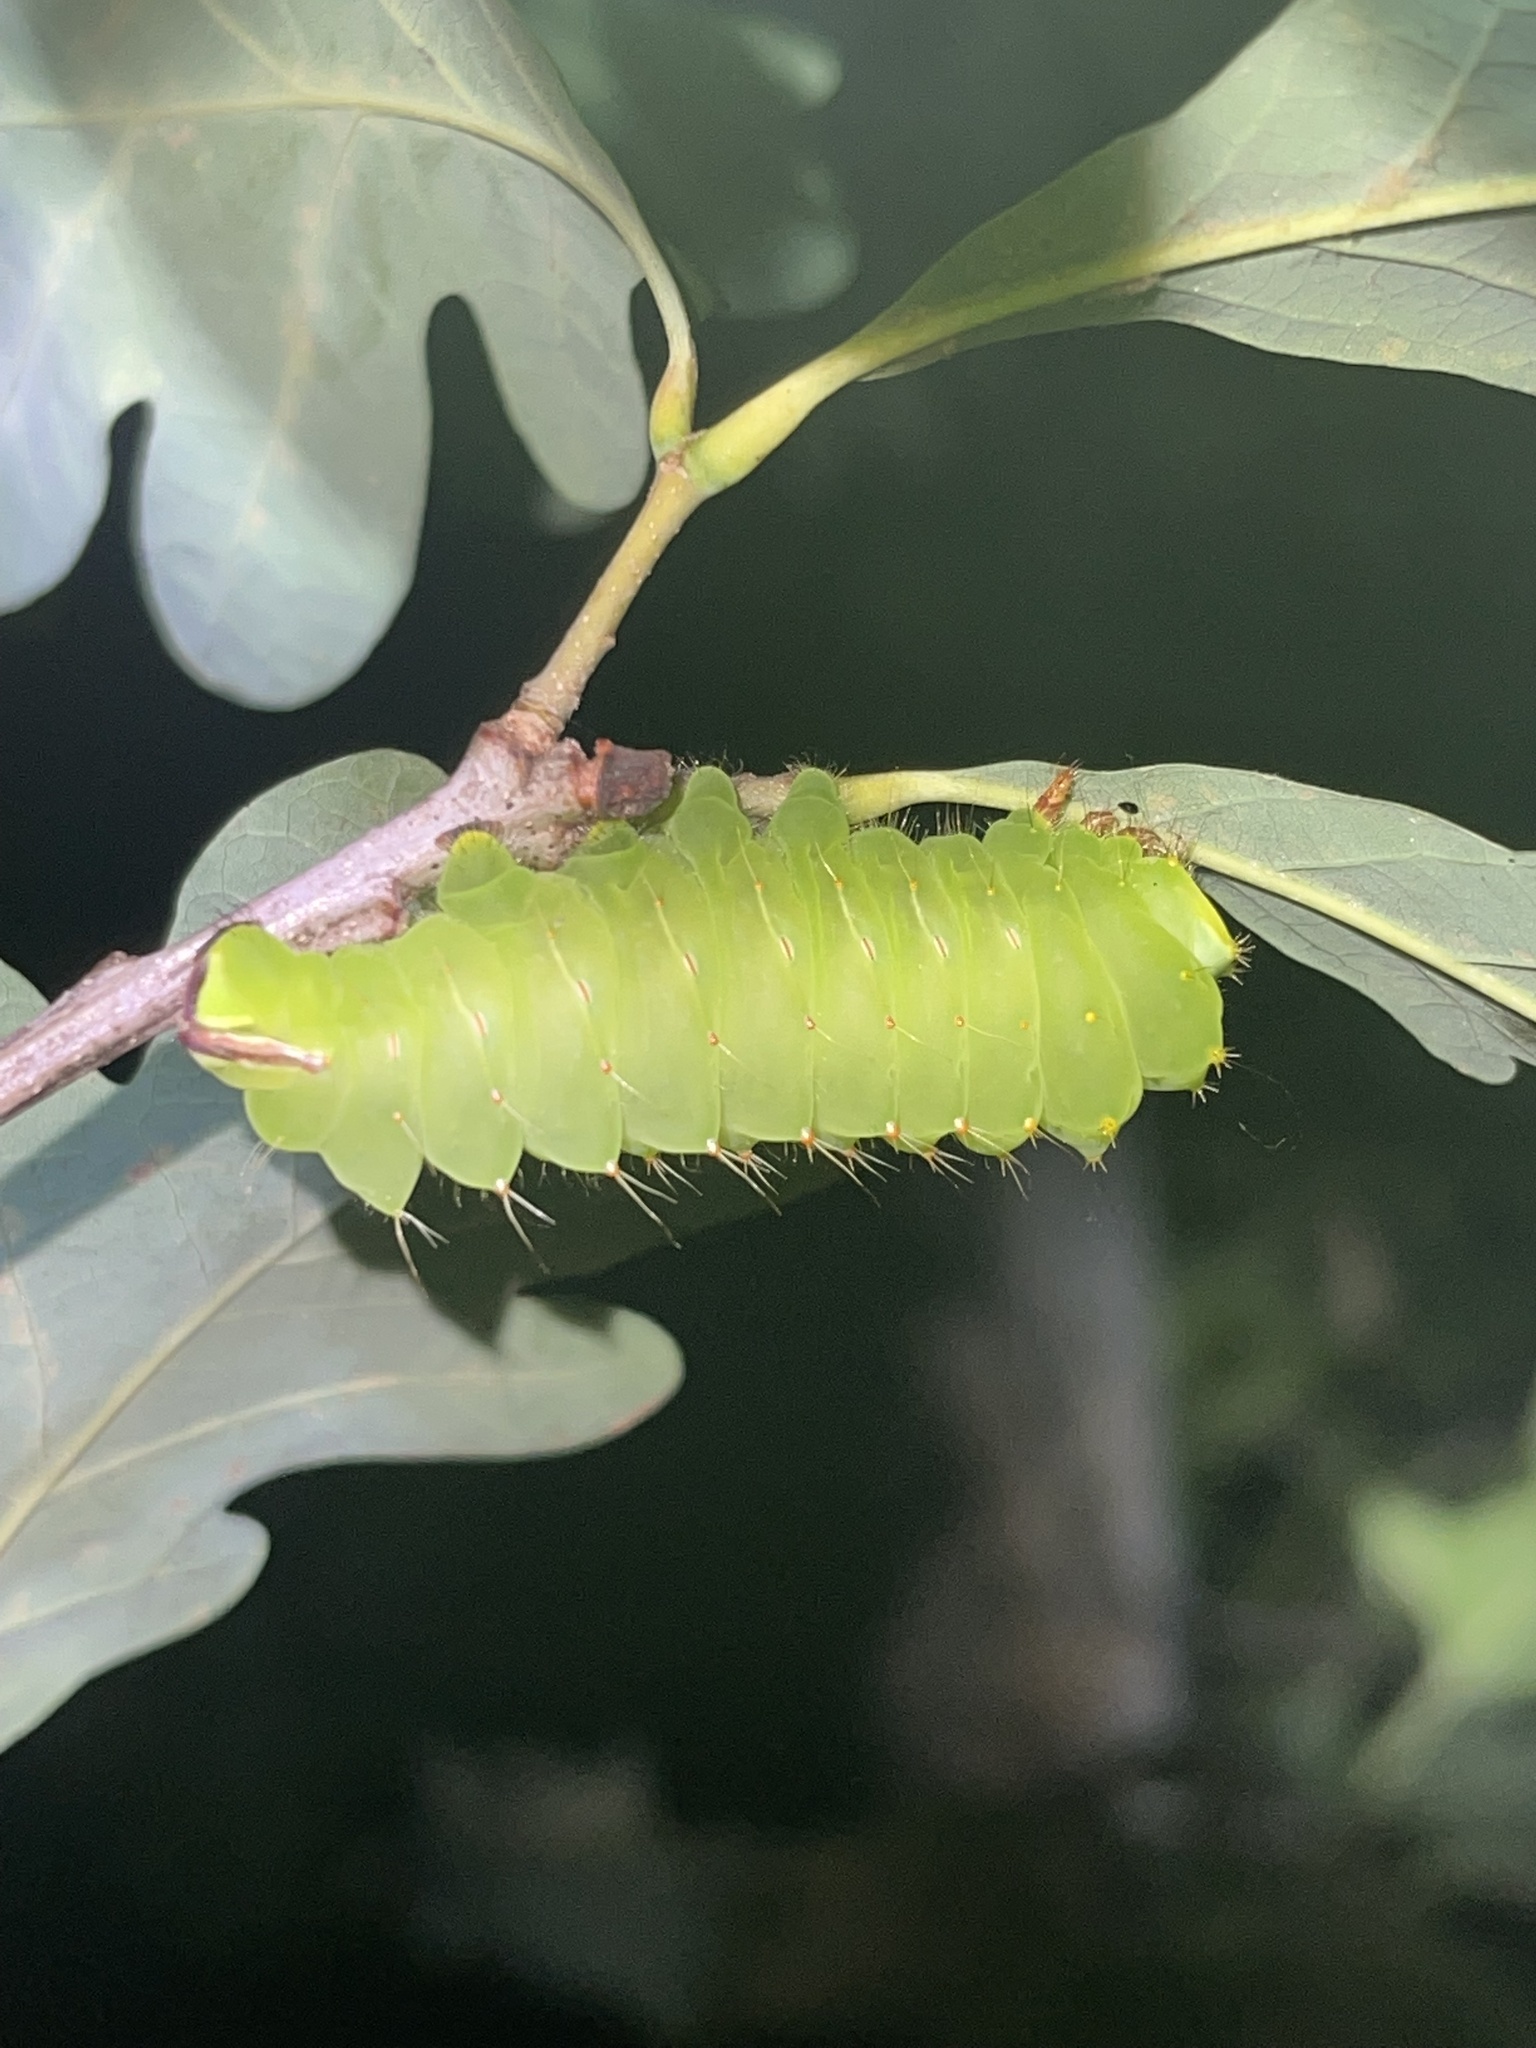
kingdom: Animalia
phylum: Arthropoda
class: Insecta
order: Lepidoptera
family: Saturniidae
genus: Antheraea
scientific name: Antheraea polyphemus
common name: Polyphemus moth
